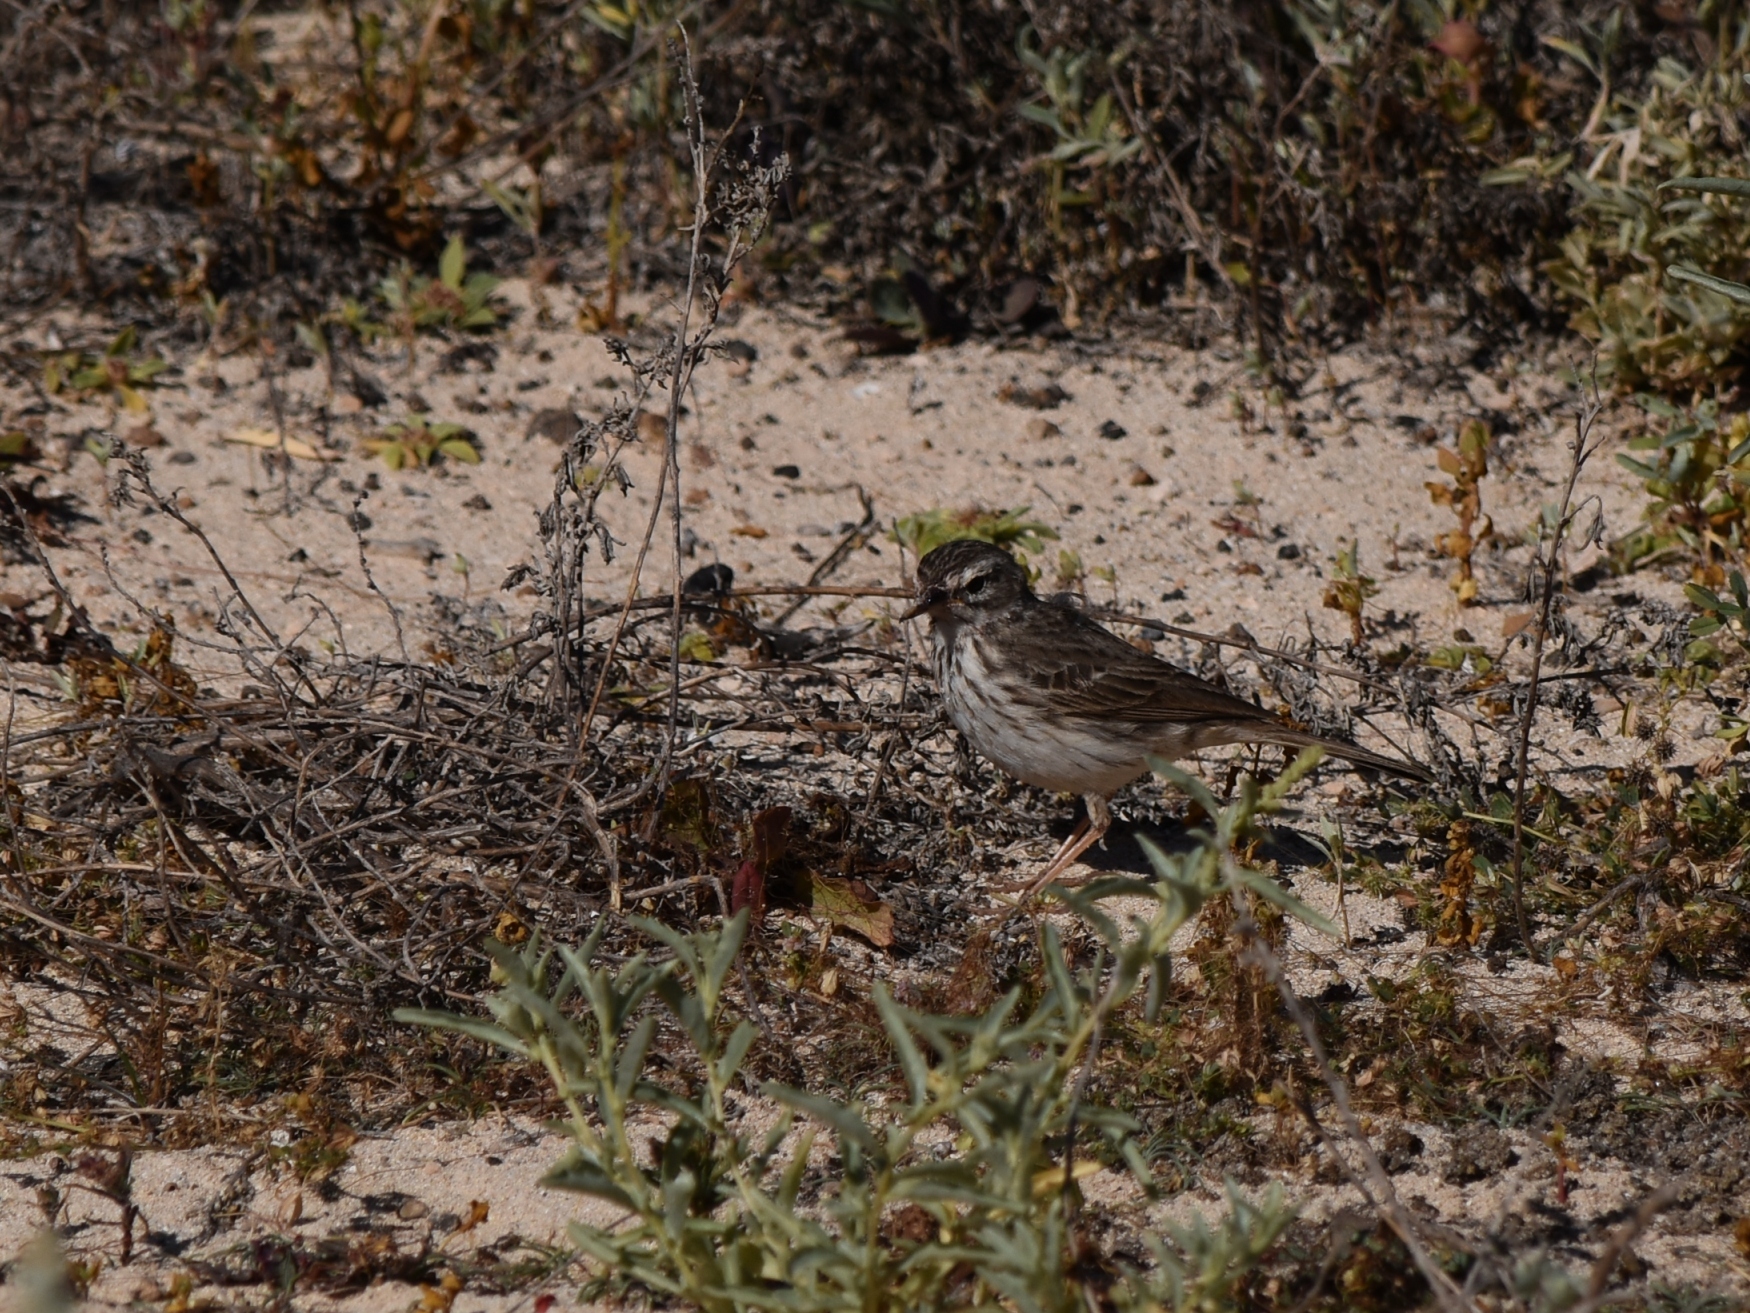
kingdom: Animalia
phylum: Chordata
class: Aves
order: Passeriformes
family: Motacillidae
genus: Anthus
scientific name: Anthus berthelotii
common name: Berthelot's pipit
